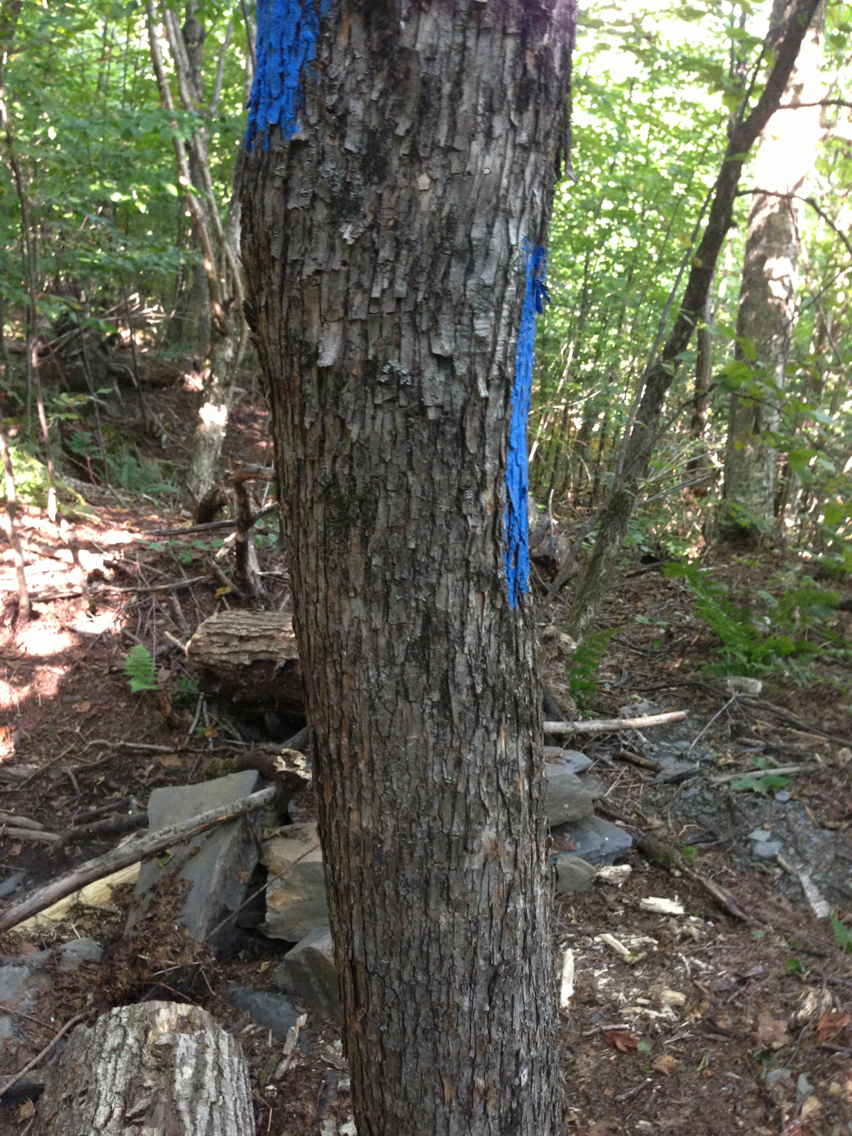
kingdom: Plantae
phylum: Tracheophyta
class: Magnoliopsida
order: Fagales
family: Betulaceae
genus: Ostrya
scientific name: Ostrya virginiana
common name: Ironwood
